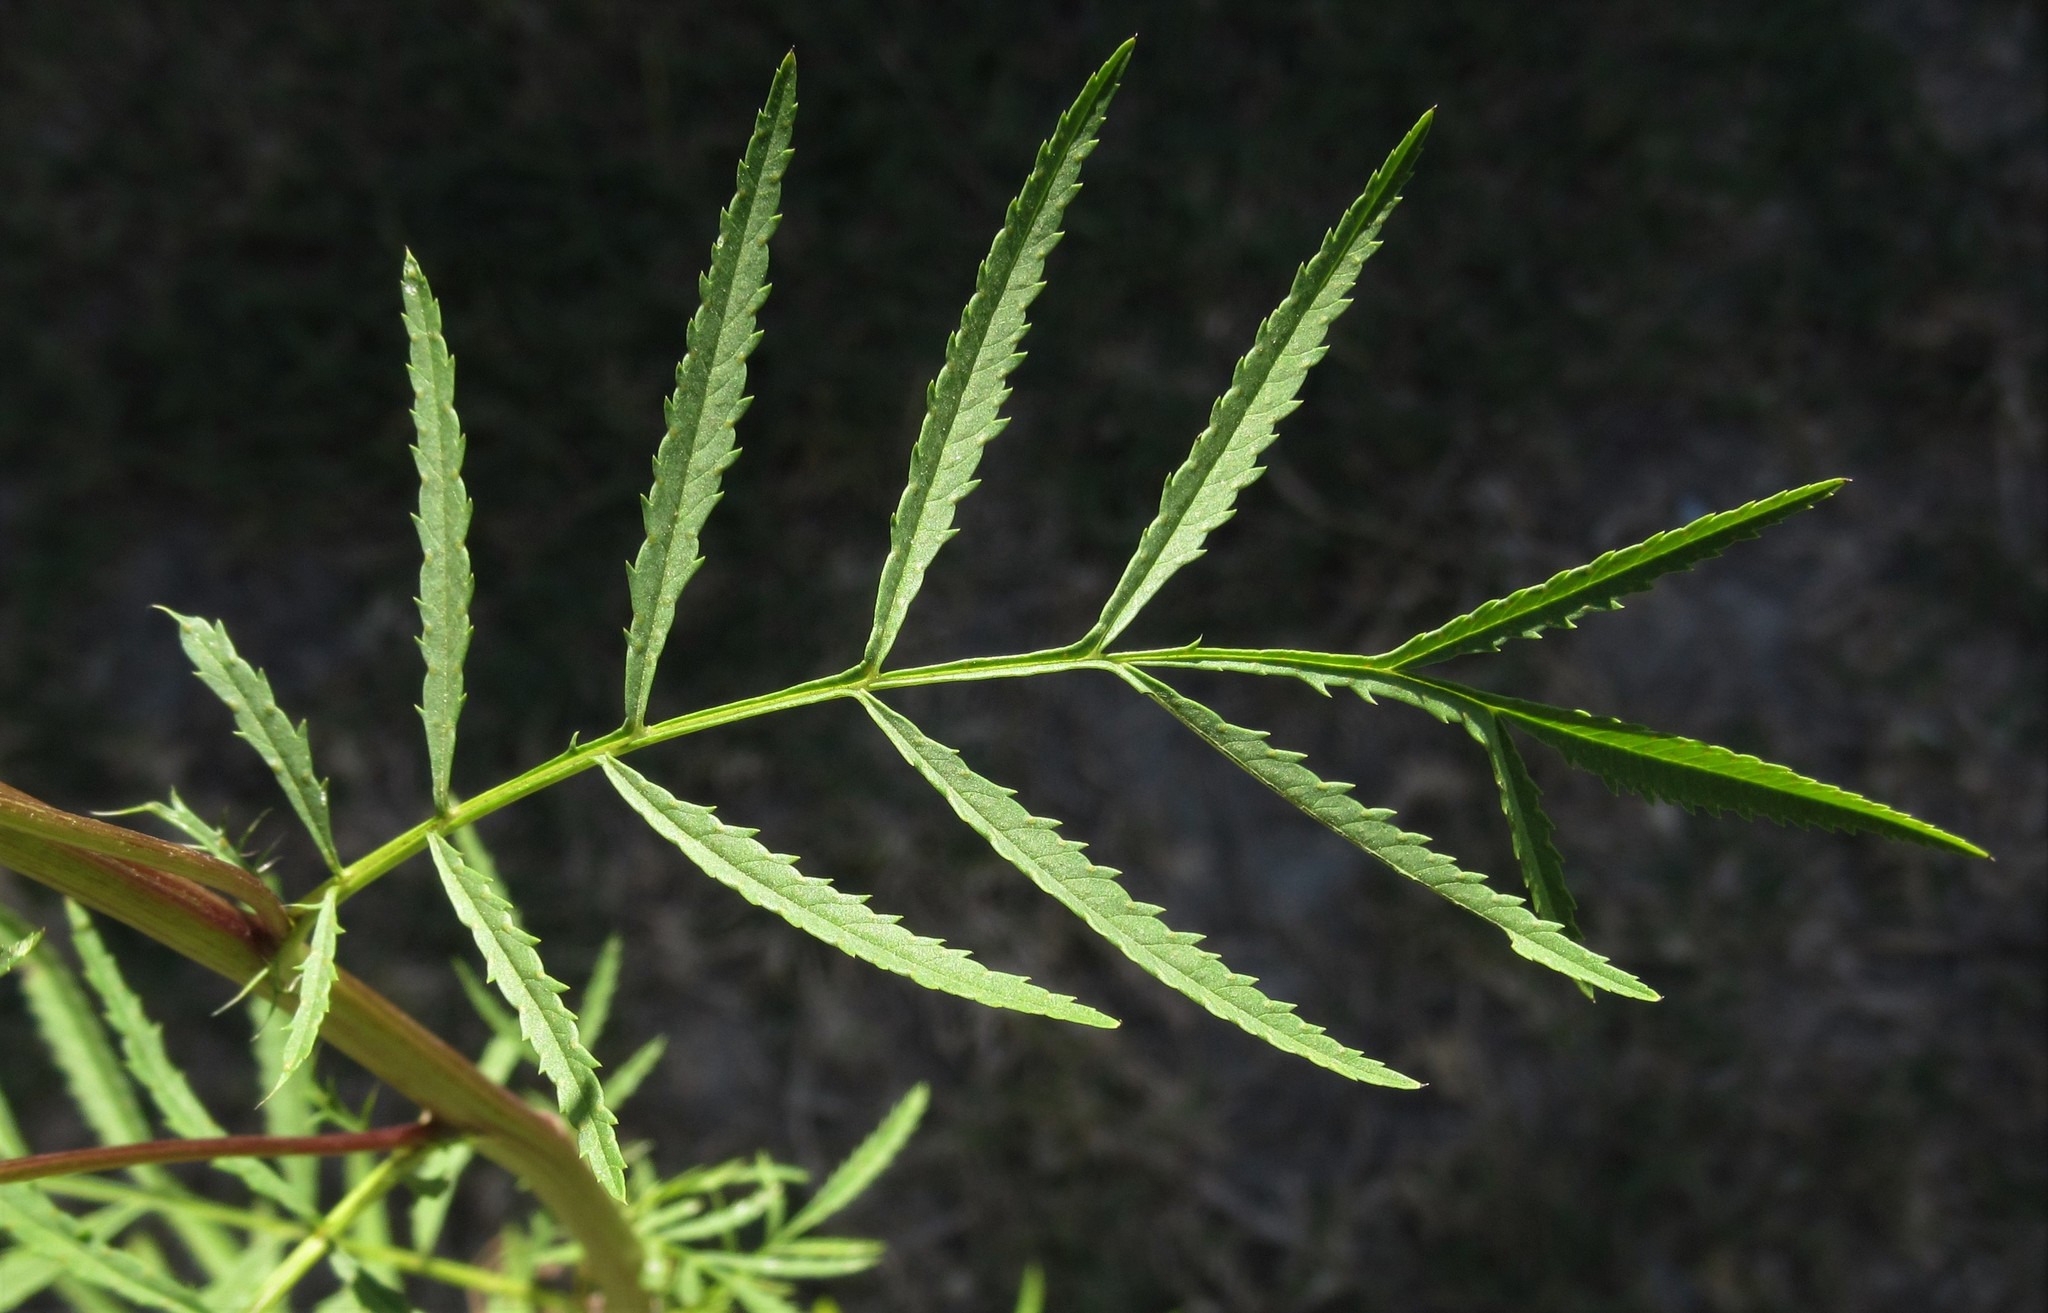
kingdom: Plantae
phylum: Tracheophyta
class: Magnoliopsida
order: Asterales
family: Asteraceae
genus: Tagetes
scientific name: Tagetes minuta
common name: Muster john henry
